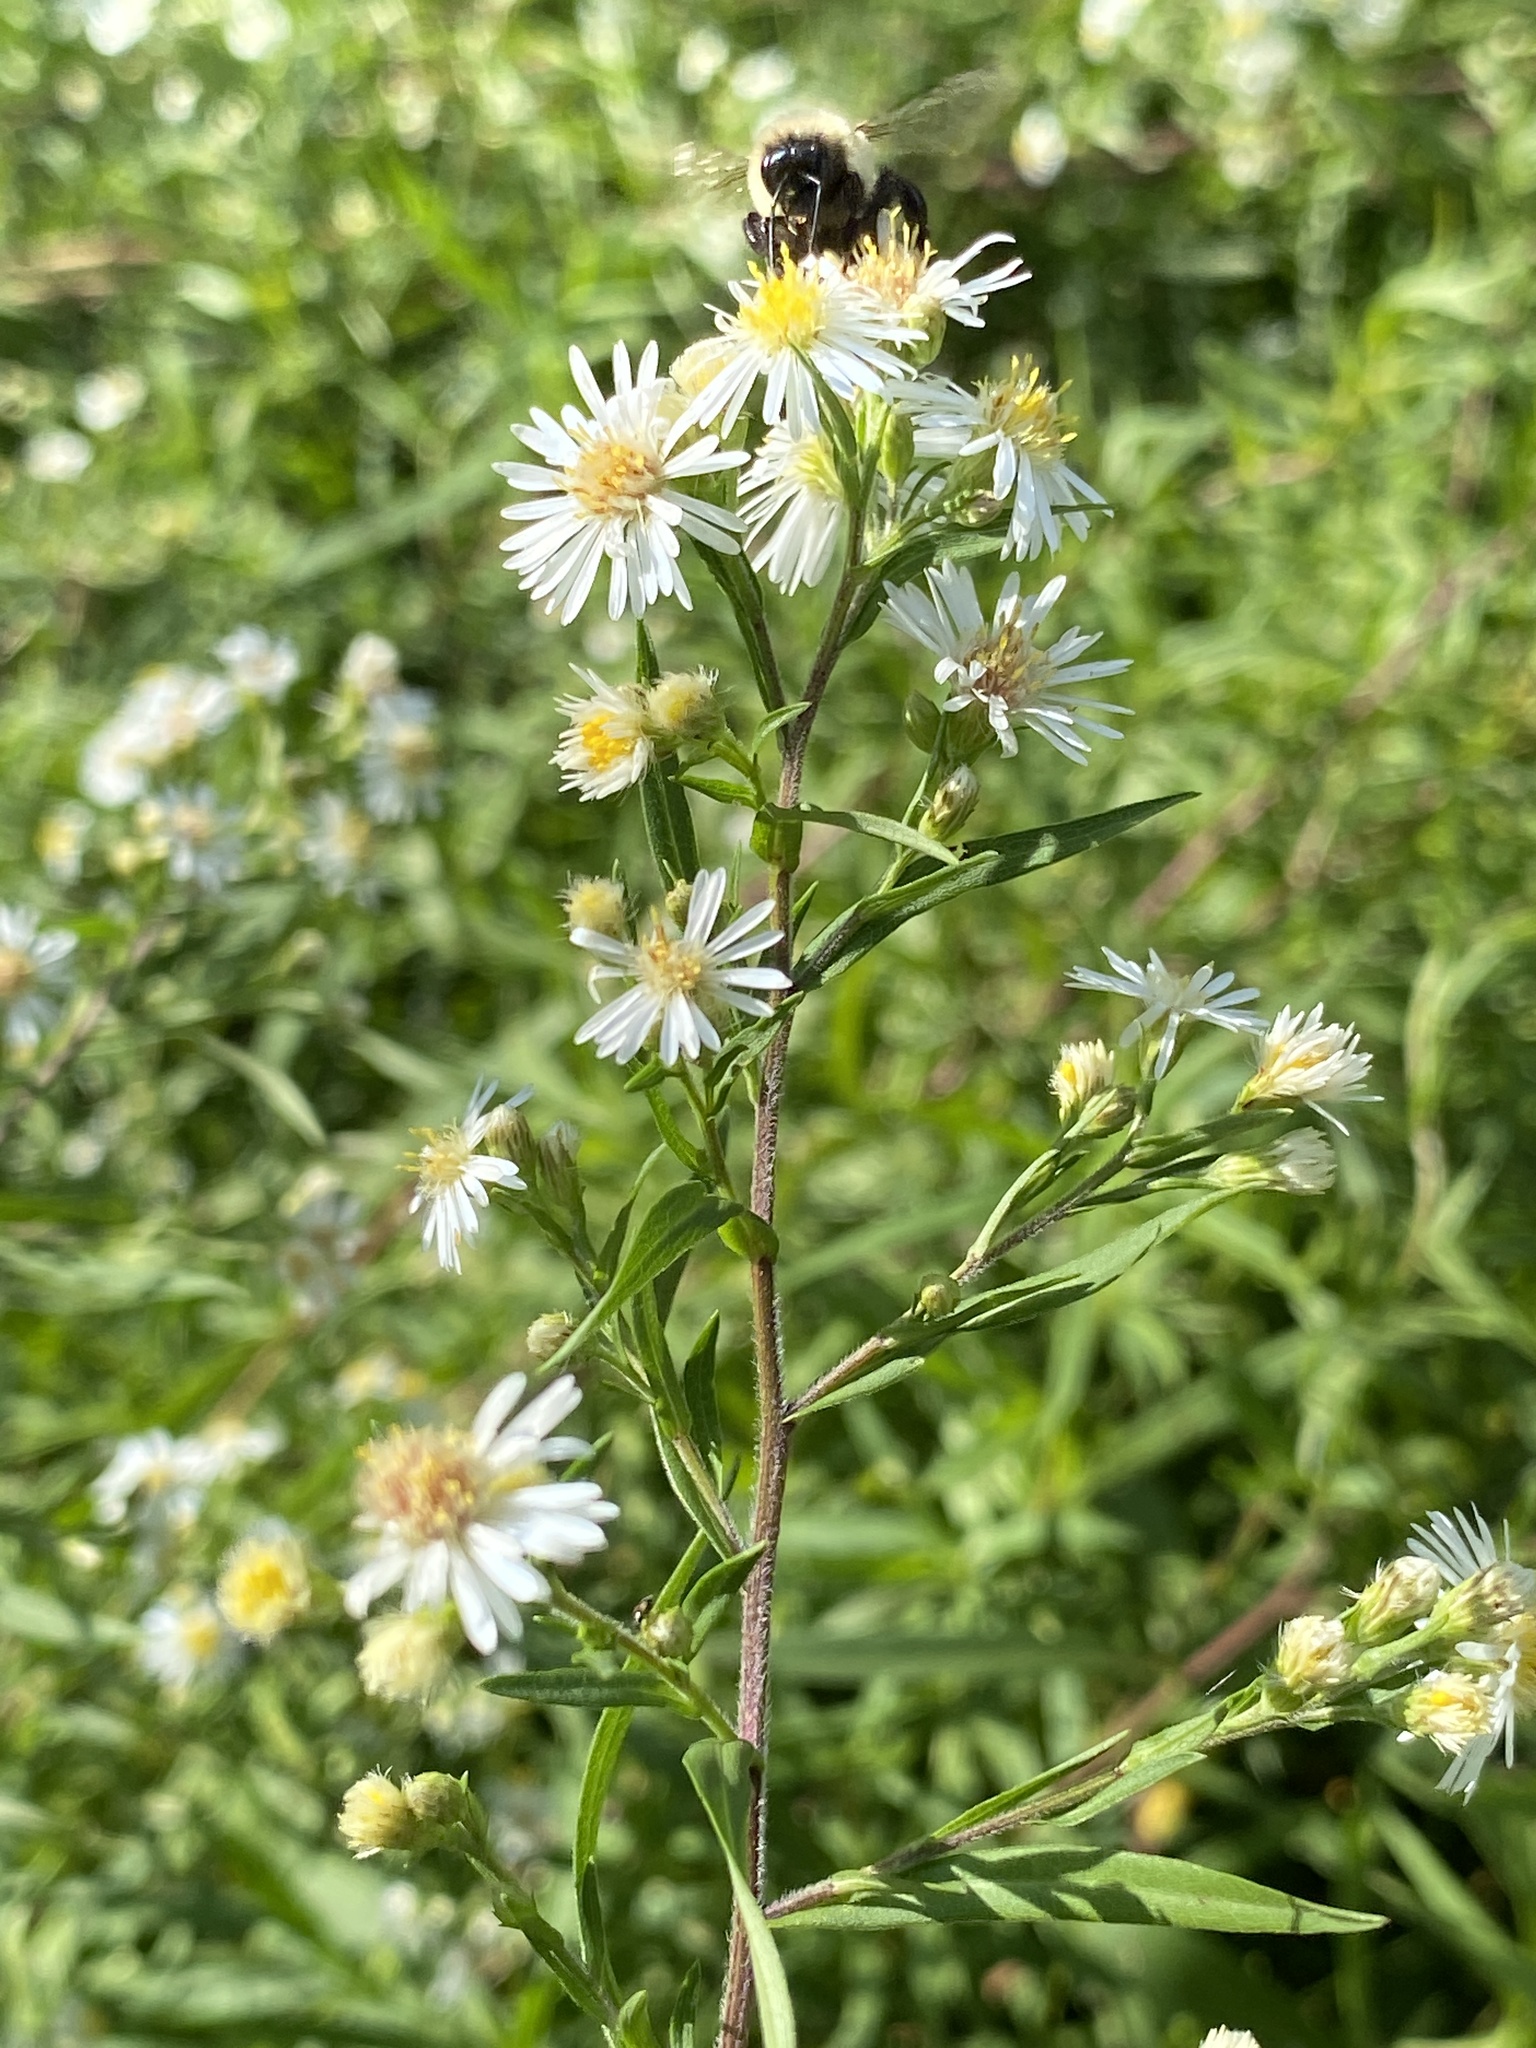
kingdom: Plantae
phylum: Tracheophyta
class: Magnoliopsida
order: Asterales
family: Asteraceae
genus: Symphyotrichum
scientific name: Symphyotrichum lanceolatum
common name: Panicled aster
